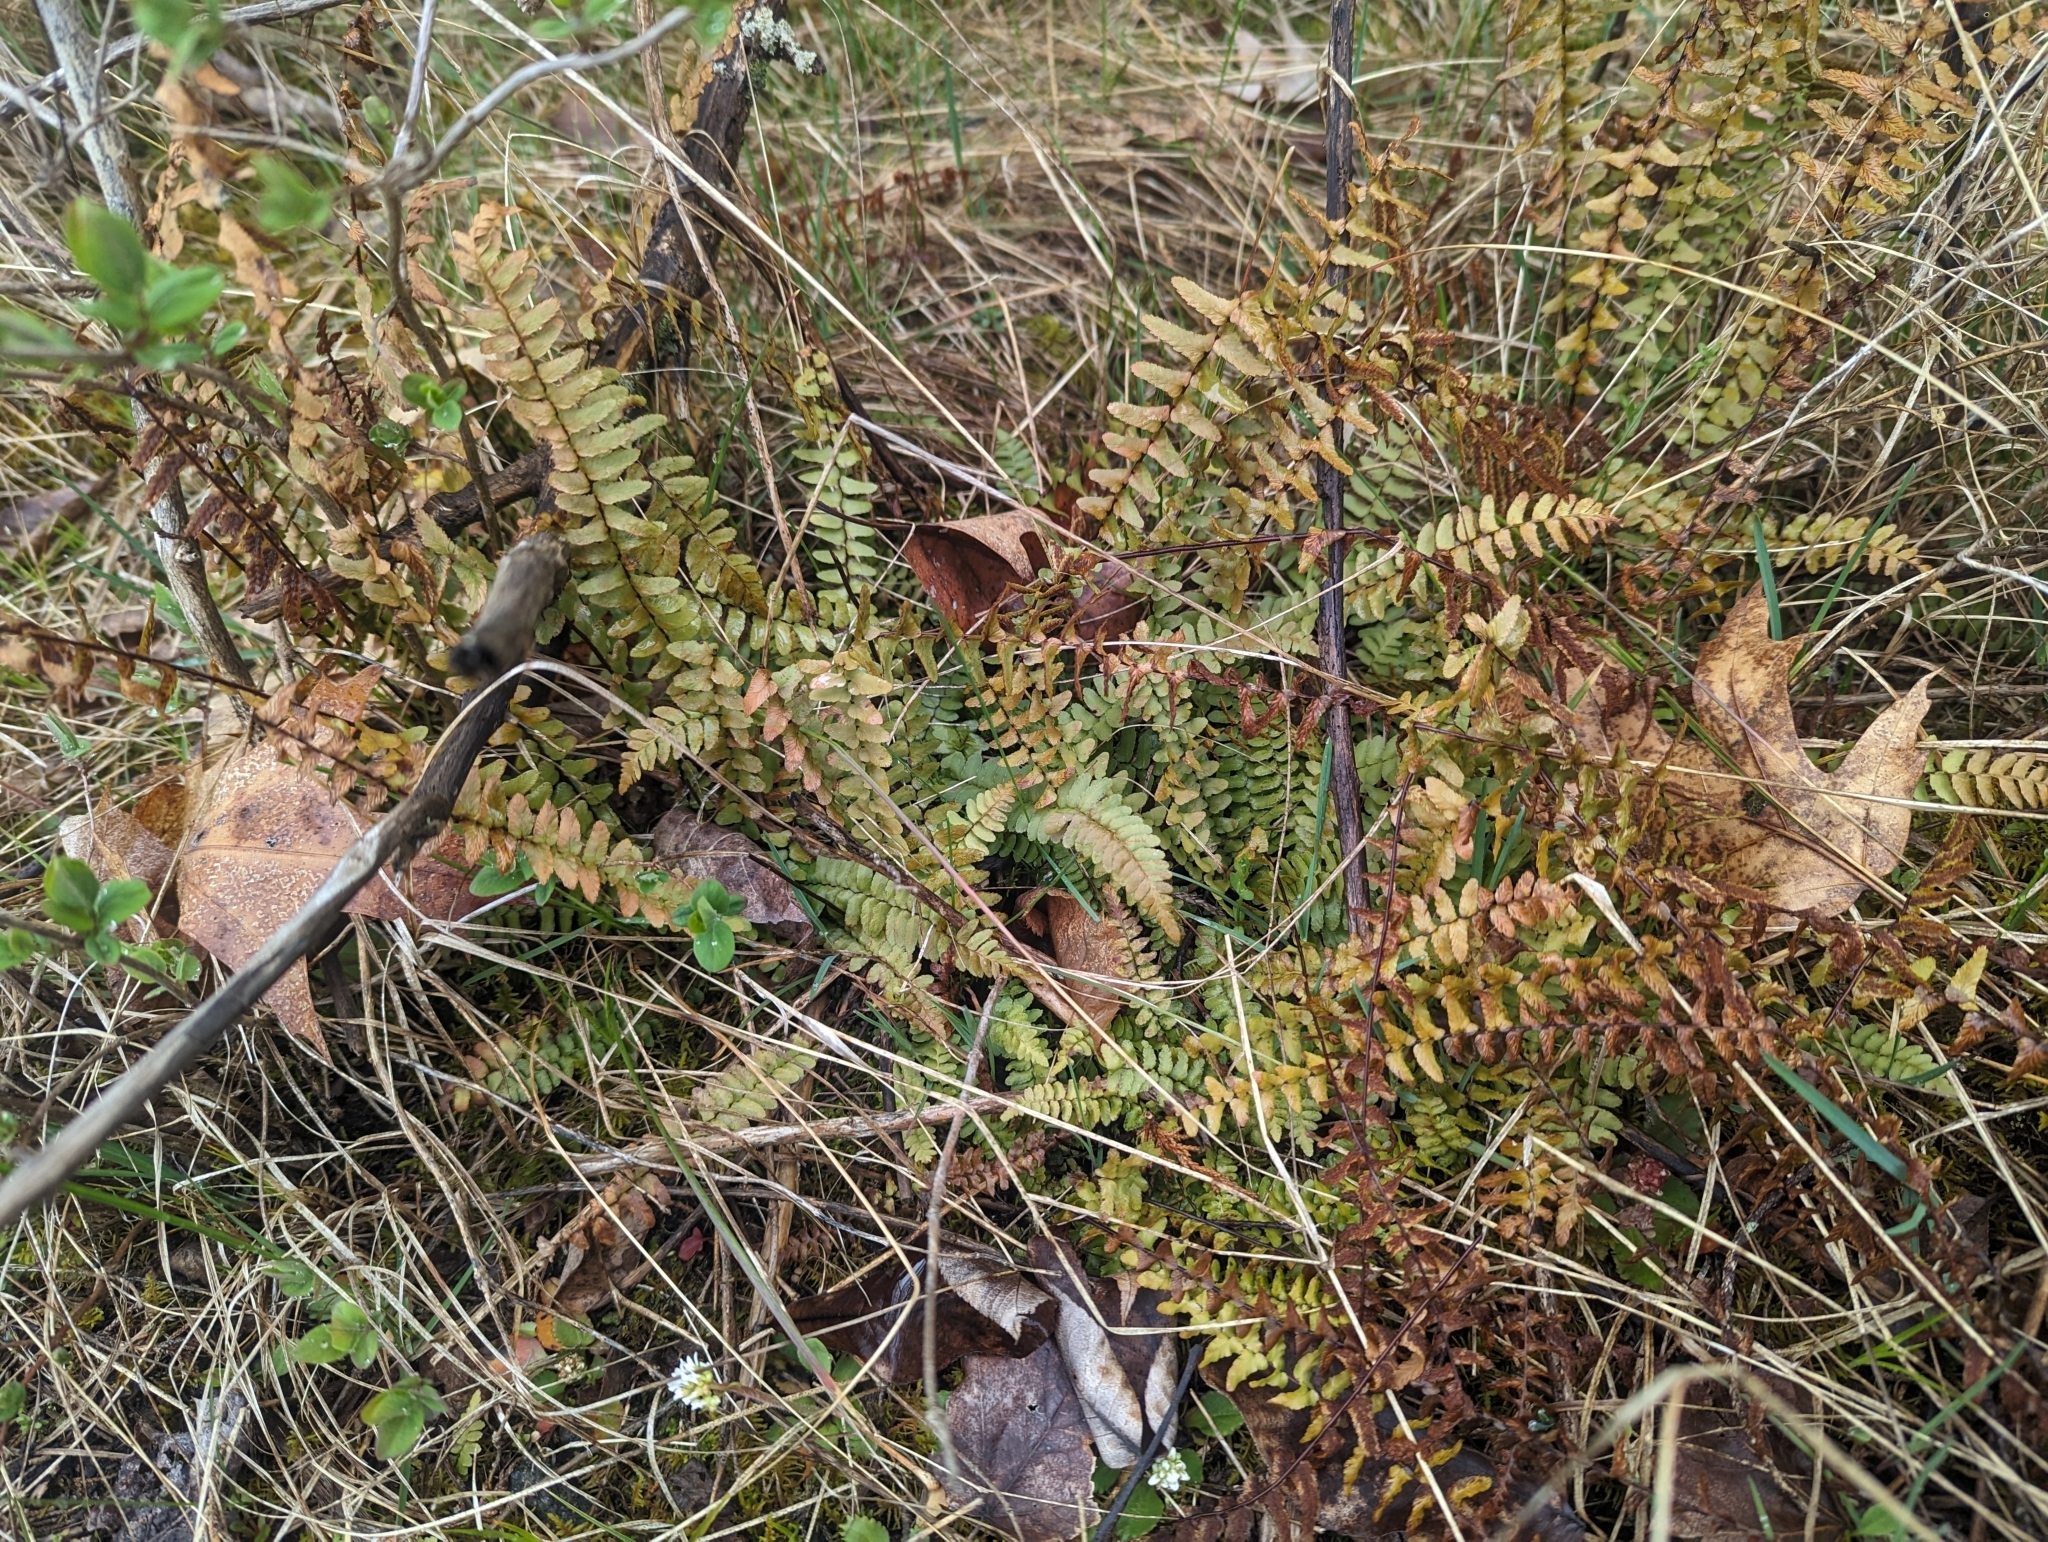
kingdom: Plantae
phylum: Tracheophyta
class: Polypodiopsida
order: Polypodiales
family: Aspleniaceae
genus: Asplenium
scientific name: Asplenium platyneuron
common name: Ebony spleenwort
